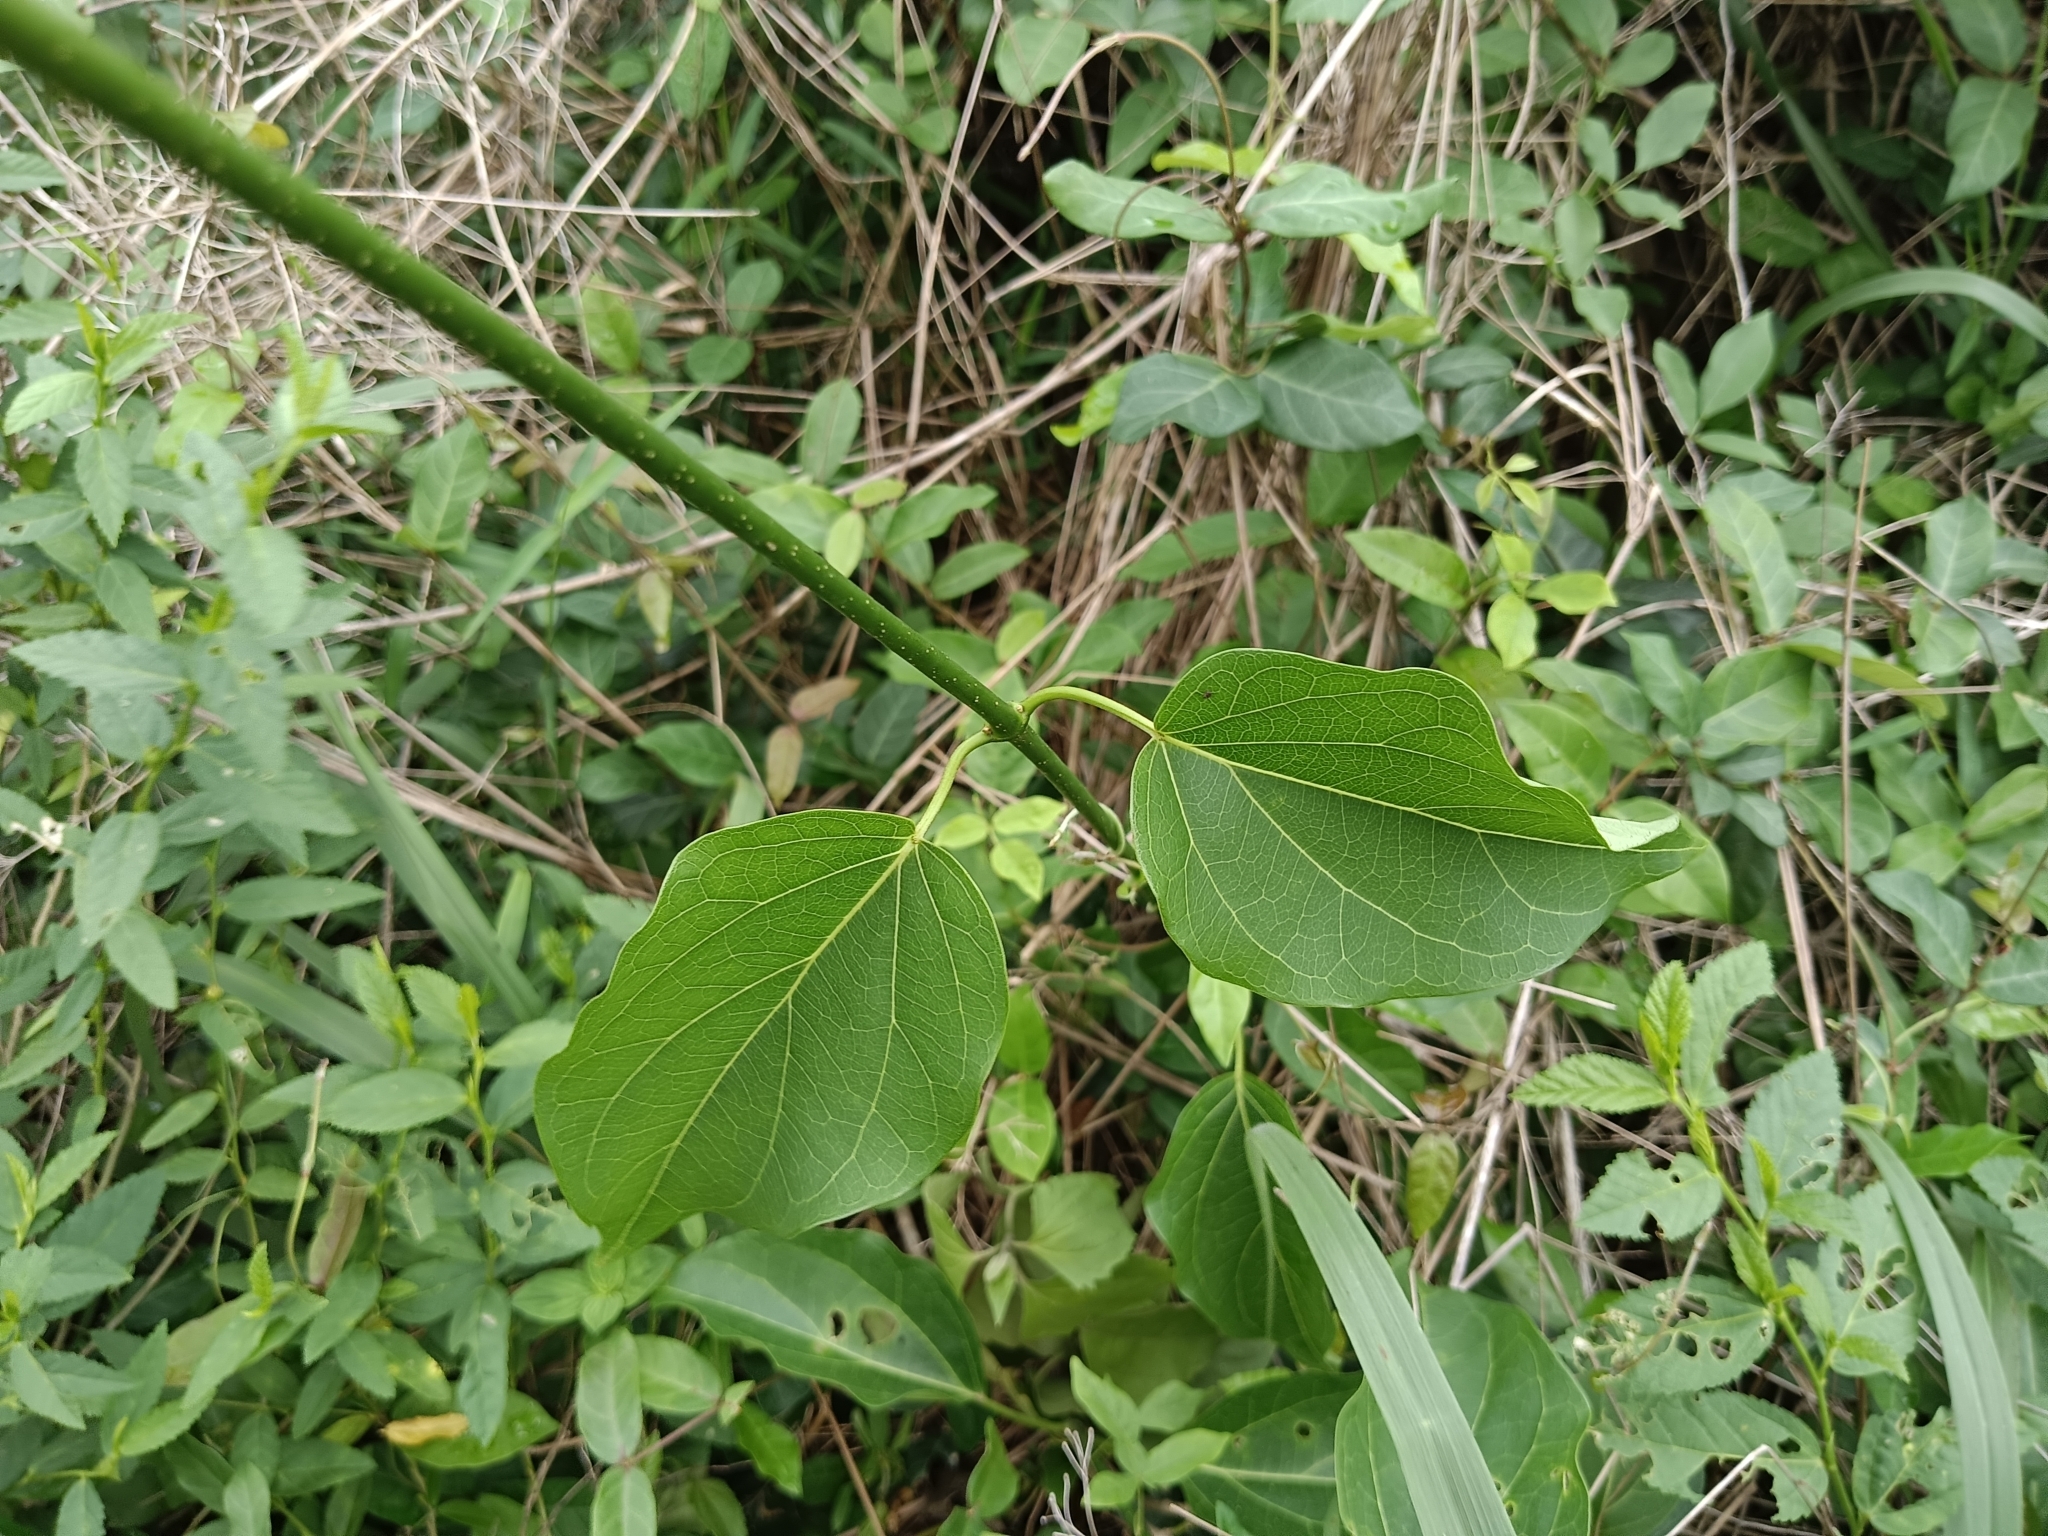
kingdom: Plantae
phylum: Tracheophyta
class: Magnoliopsida
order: Gentianales
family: Apocynaceae
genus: Stephanotis
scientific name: Stephanotis volubilis
